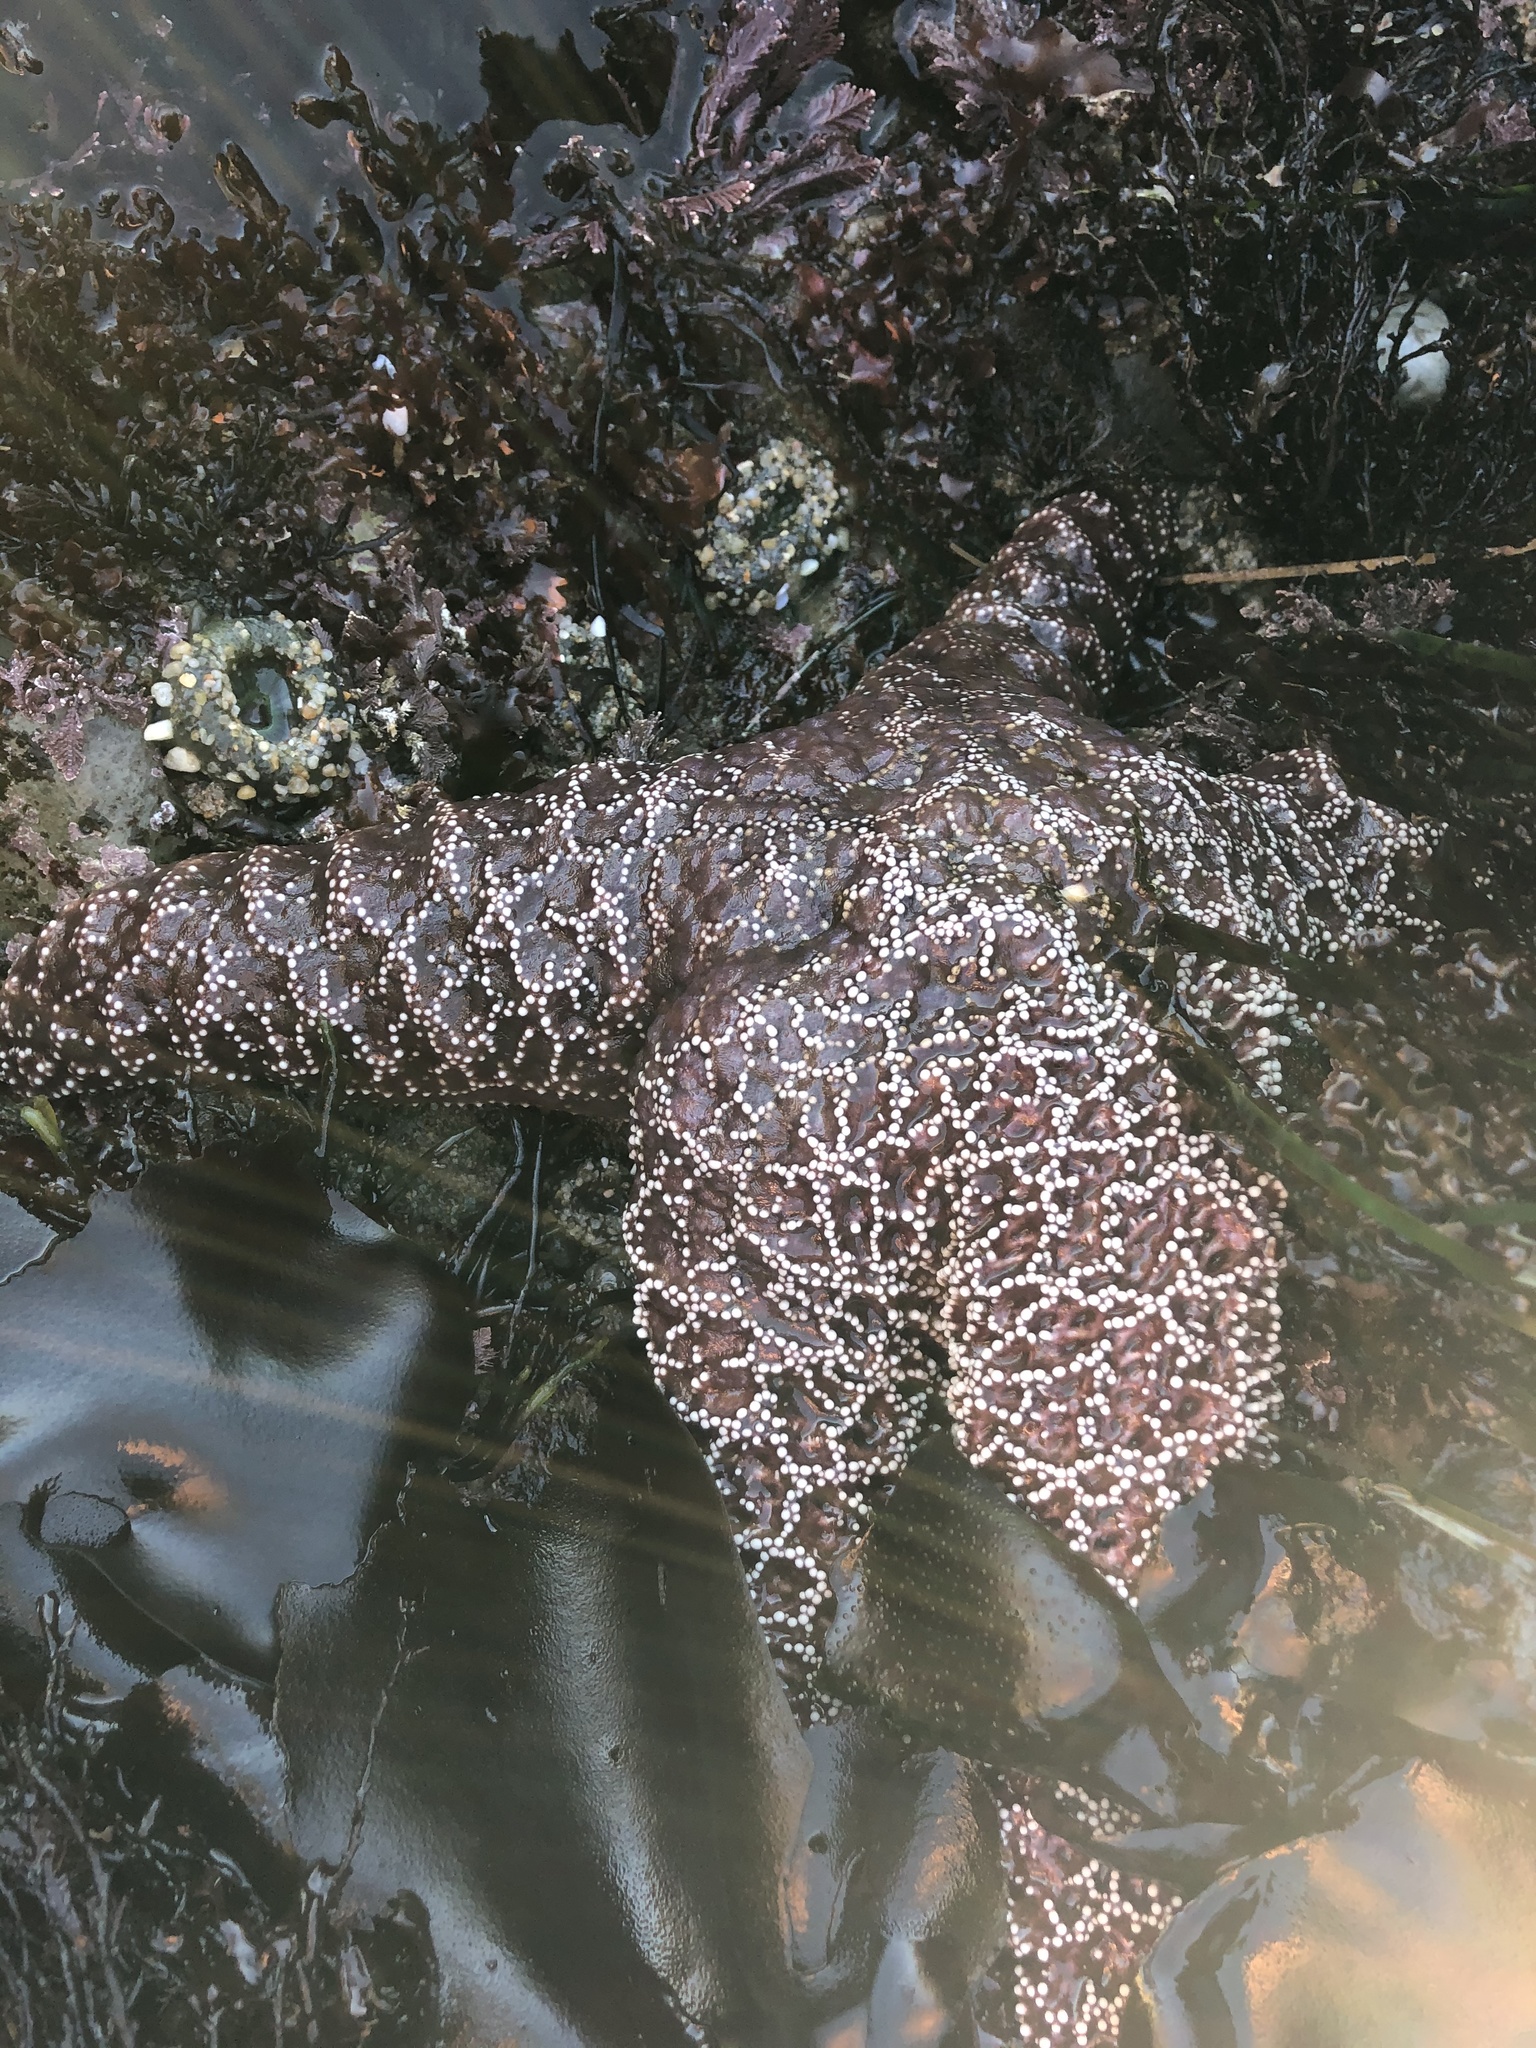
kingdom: Animalia
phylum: Echinodermata
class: Asteroidea
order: Forcipulatida
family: Asteriidae
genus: Pisaster
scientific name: Pisaster ochraceus
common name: Ochre stars
